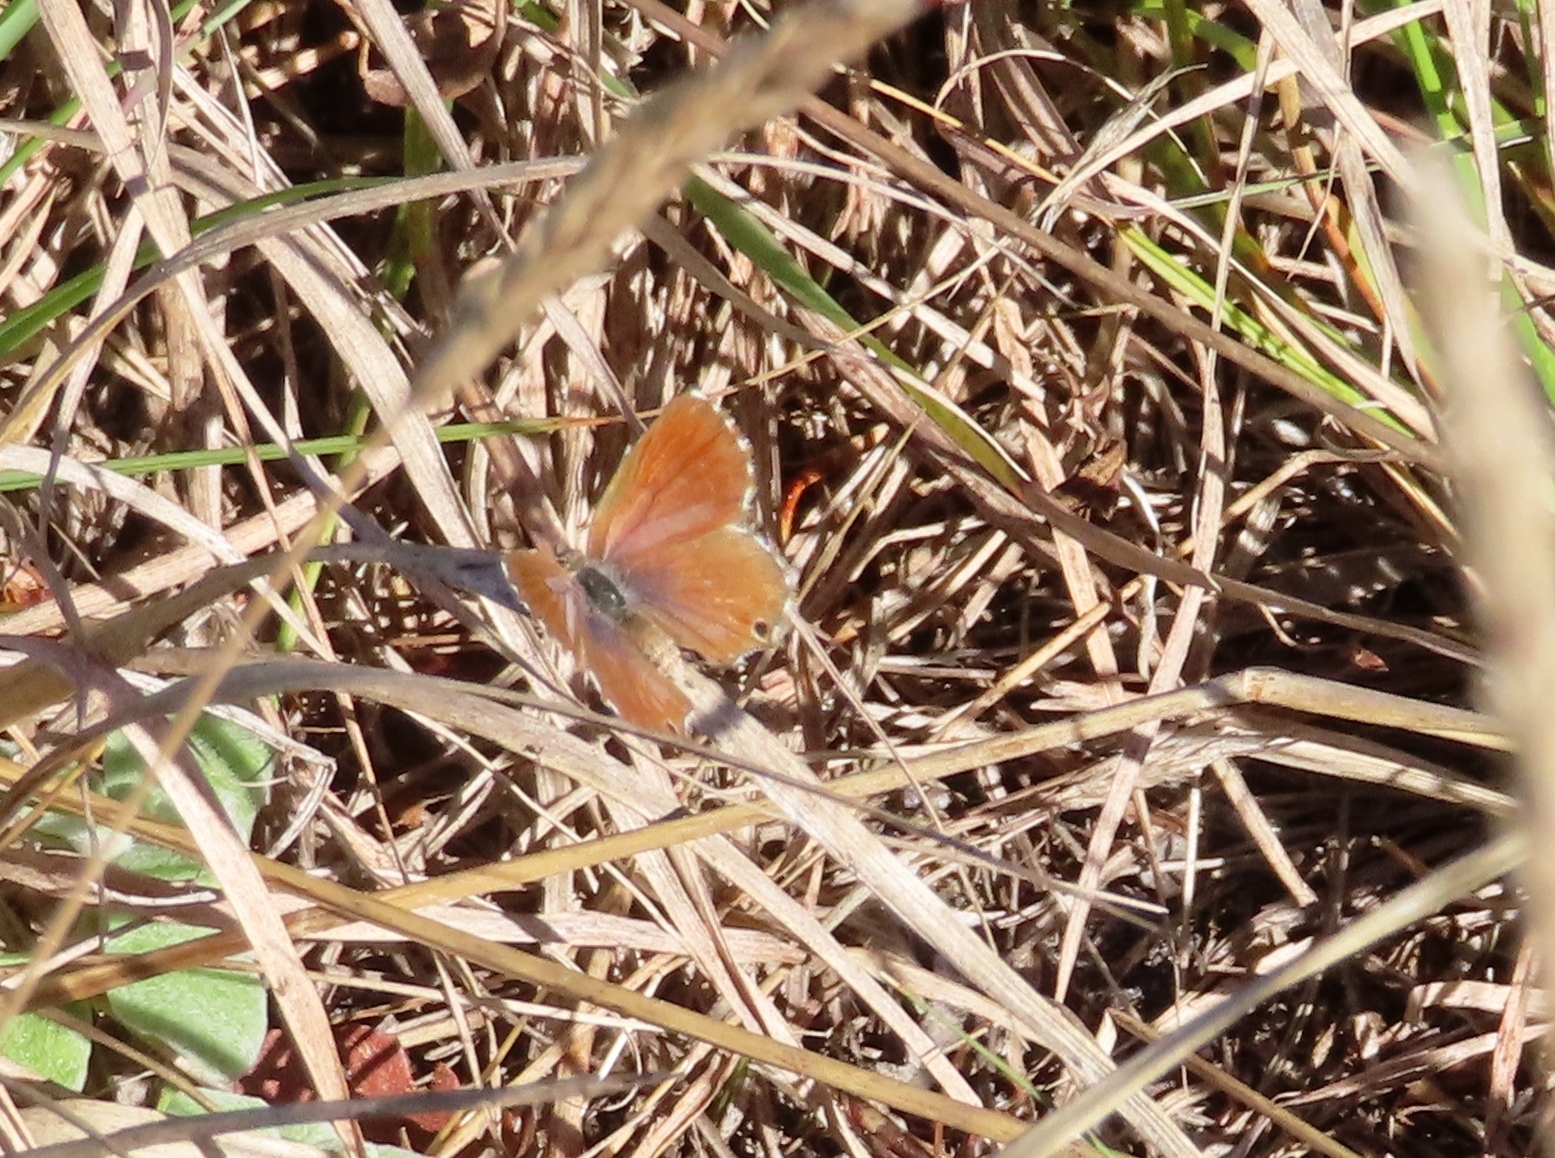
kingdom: Animalia
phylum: Arthropoda
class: Insecta
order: Lepidoptera
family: Lycaenidae
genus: Cacyreus
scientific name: Cacyreus fracta
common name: Water bronze
